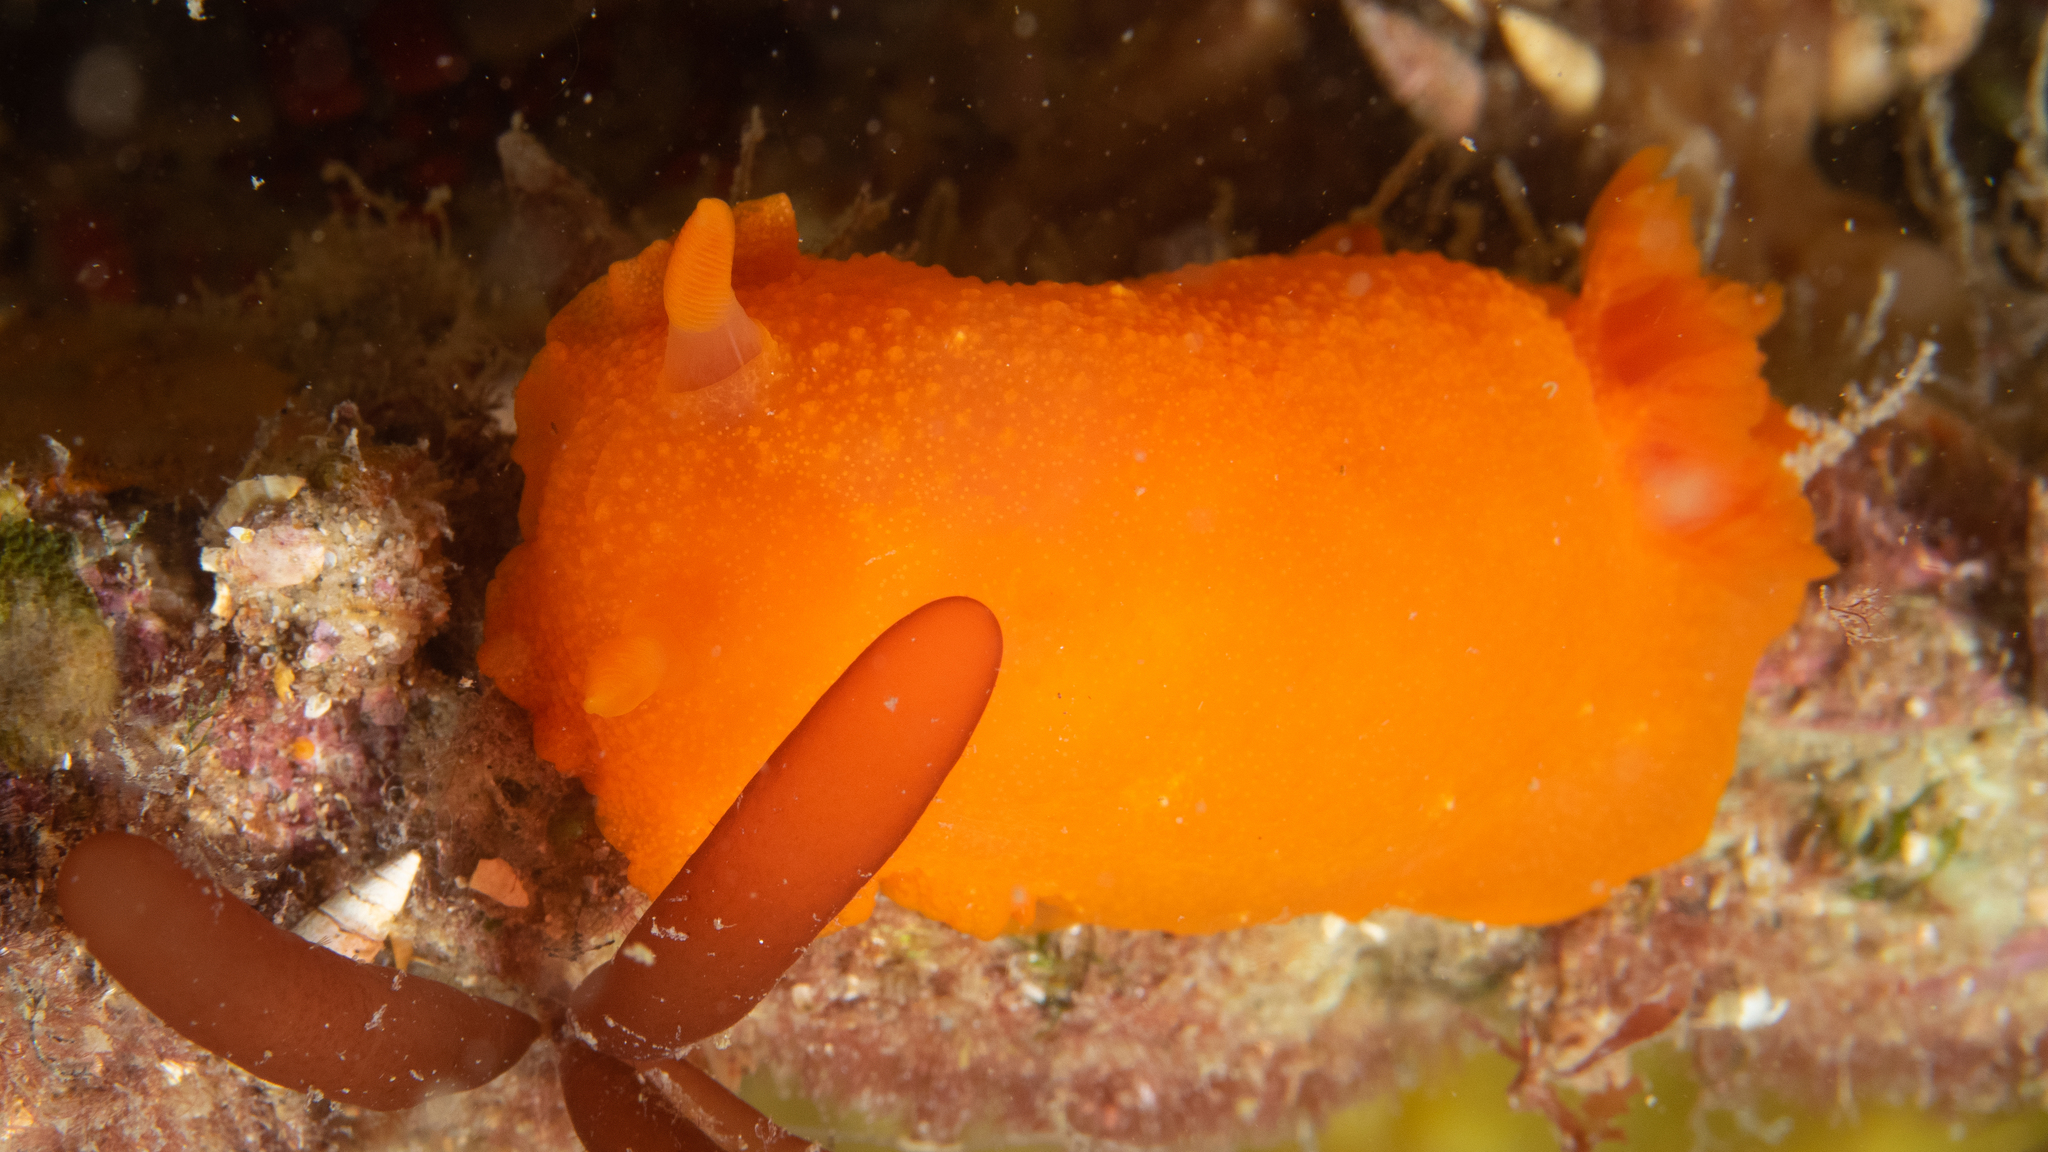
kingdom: Animalia
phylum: Mollusca
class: Gastropoda
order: Nudibranchia
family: Dendrodorididae
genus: Doriopsilla
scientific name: Doriopsilla carneola
